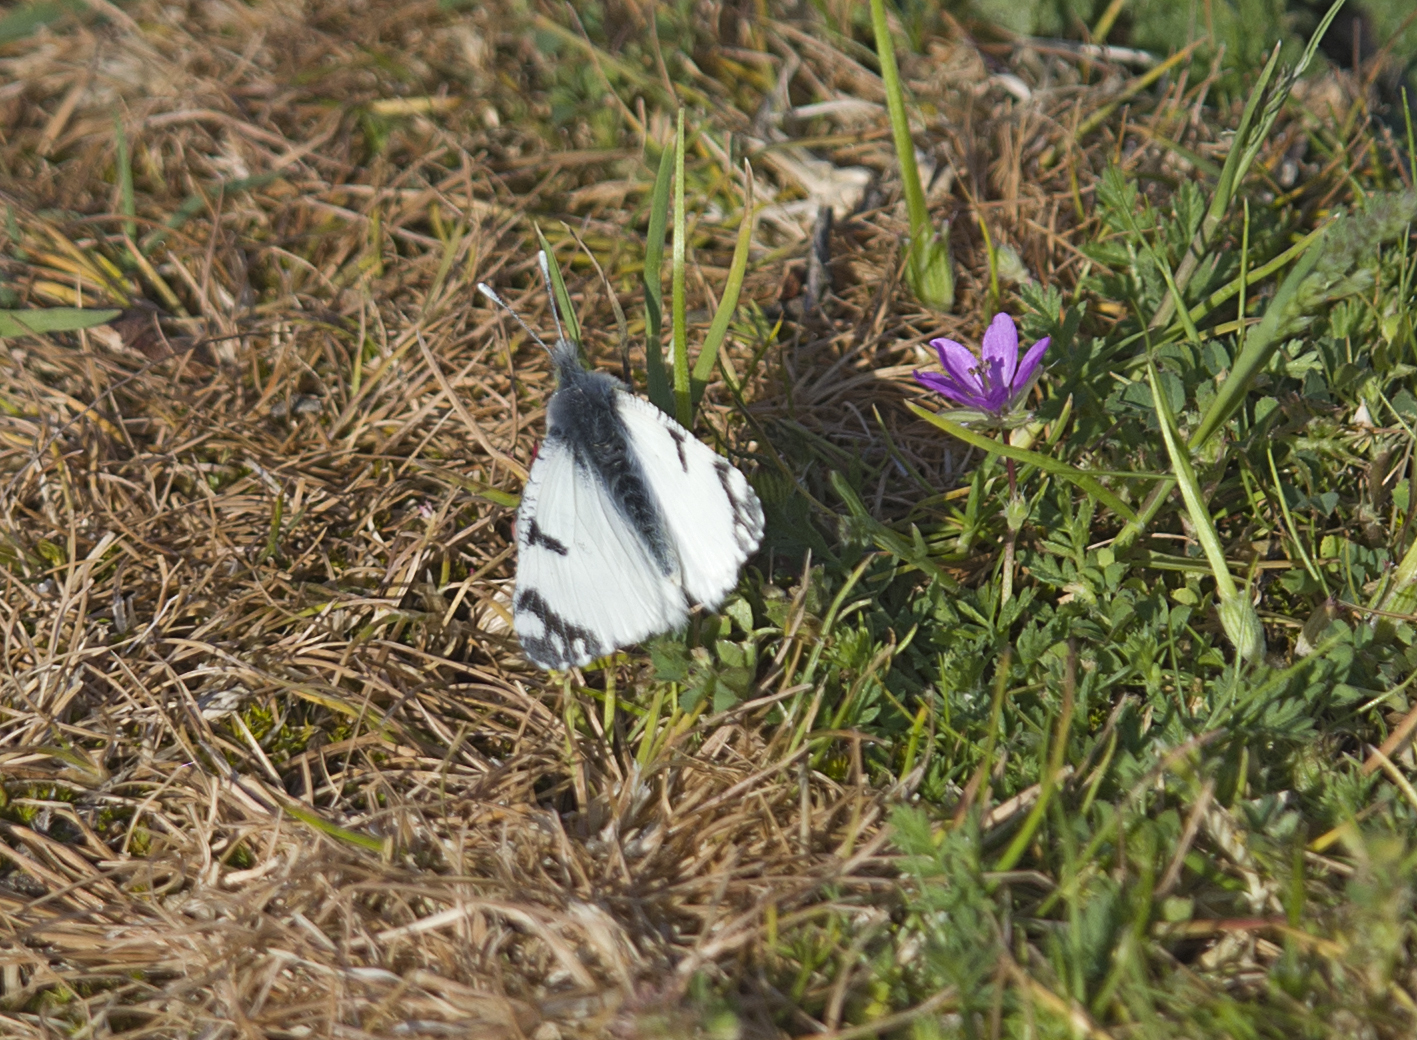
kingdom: Animalia
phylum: Arthropoda
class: Insecta
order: Lepidoptera
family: Pieridae
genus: Euchloe
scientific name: Euchloe ausonia
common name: Eastern dappled white
